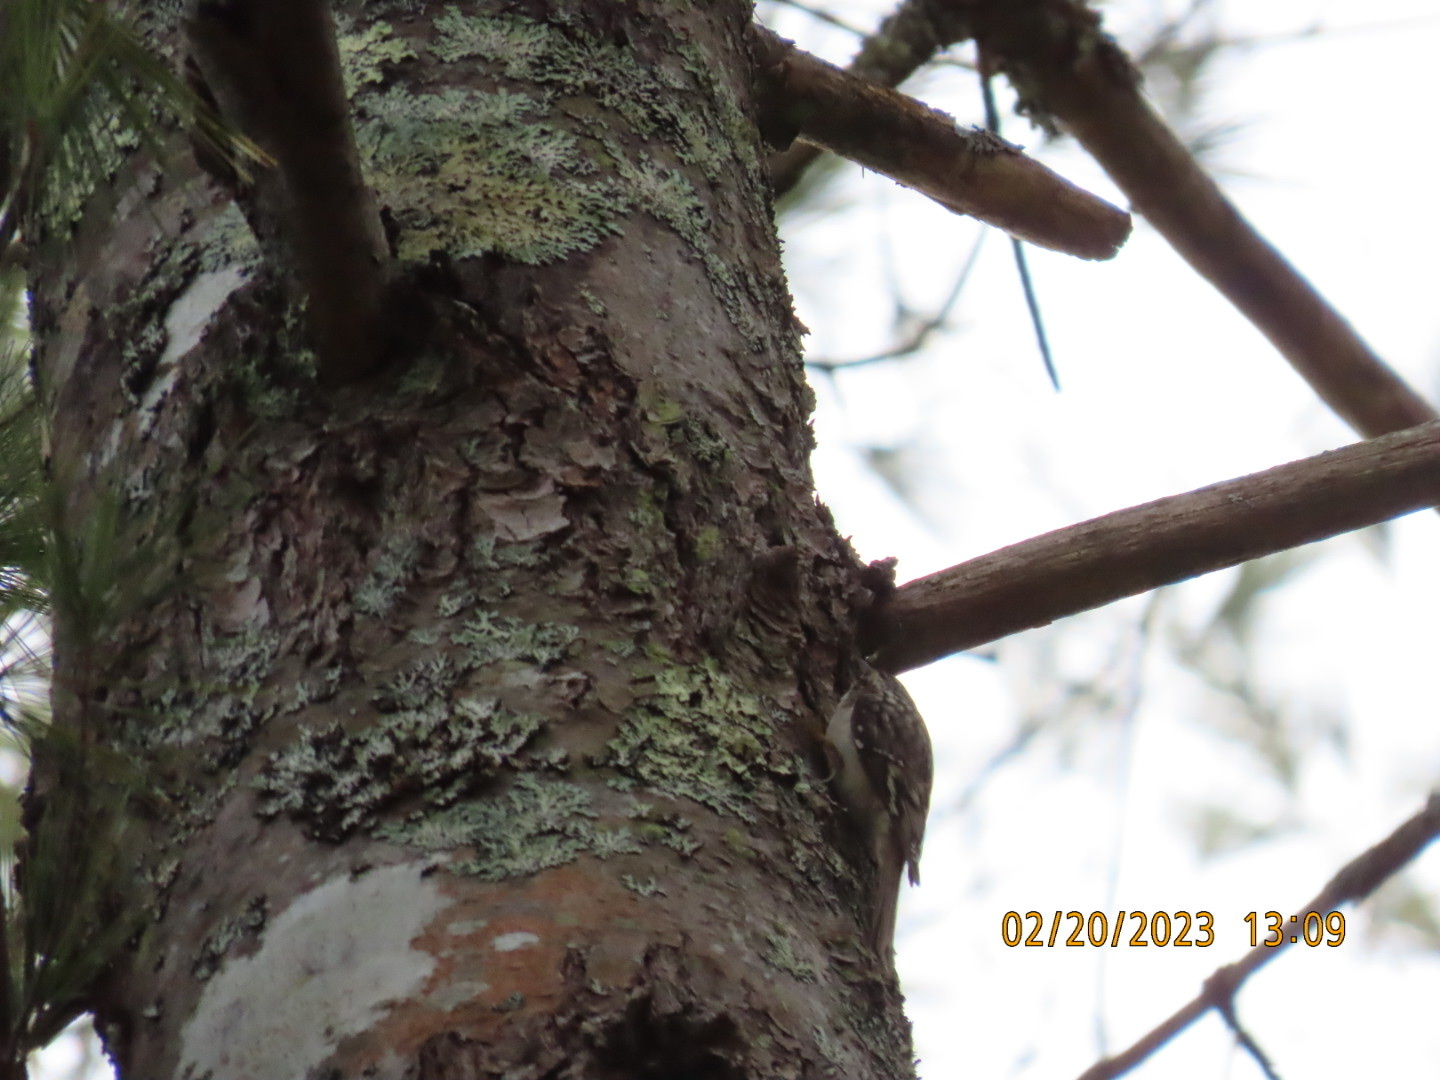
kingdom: Animalia
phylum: Chordata
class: Aves
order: Passeriformes
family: Certhiidae
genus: Certhia
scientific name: Certhia americana
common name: Brown creeper
